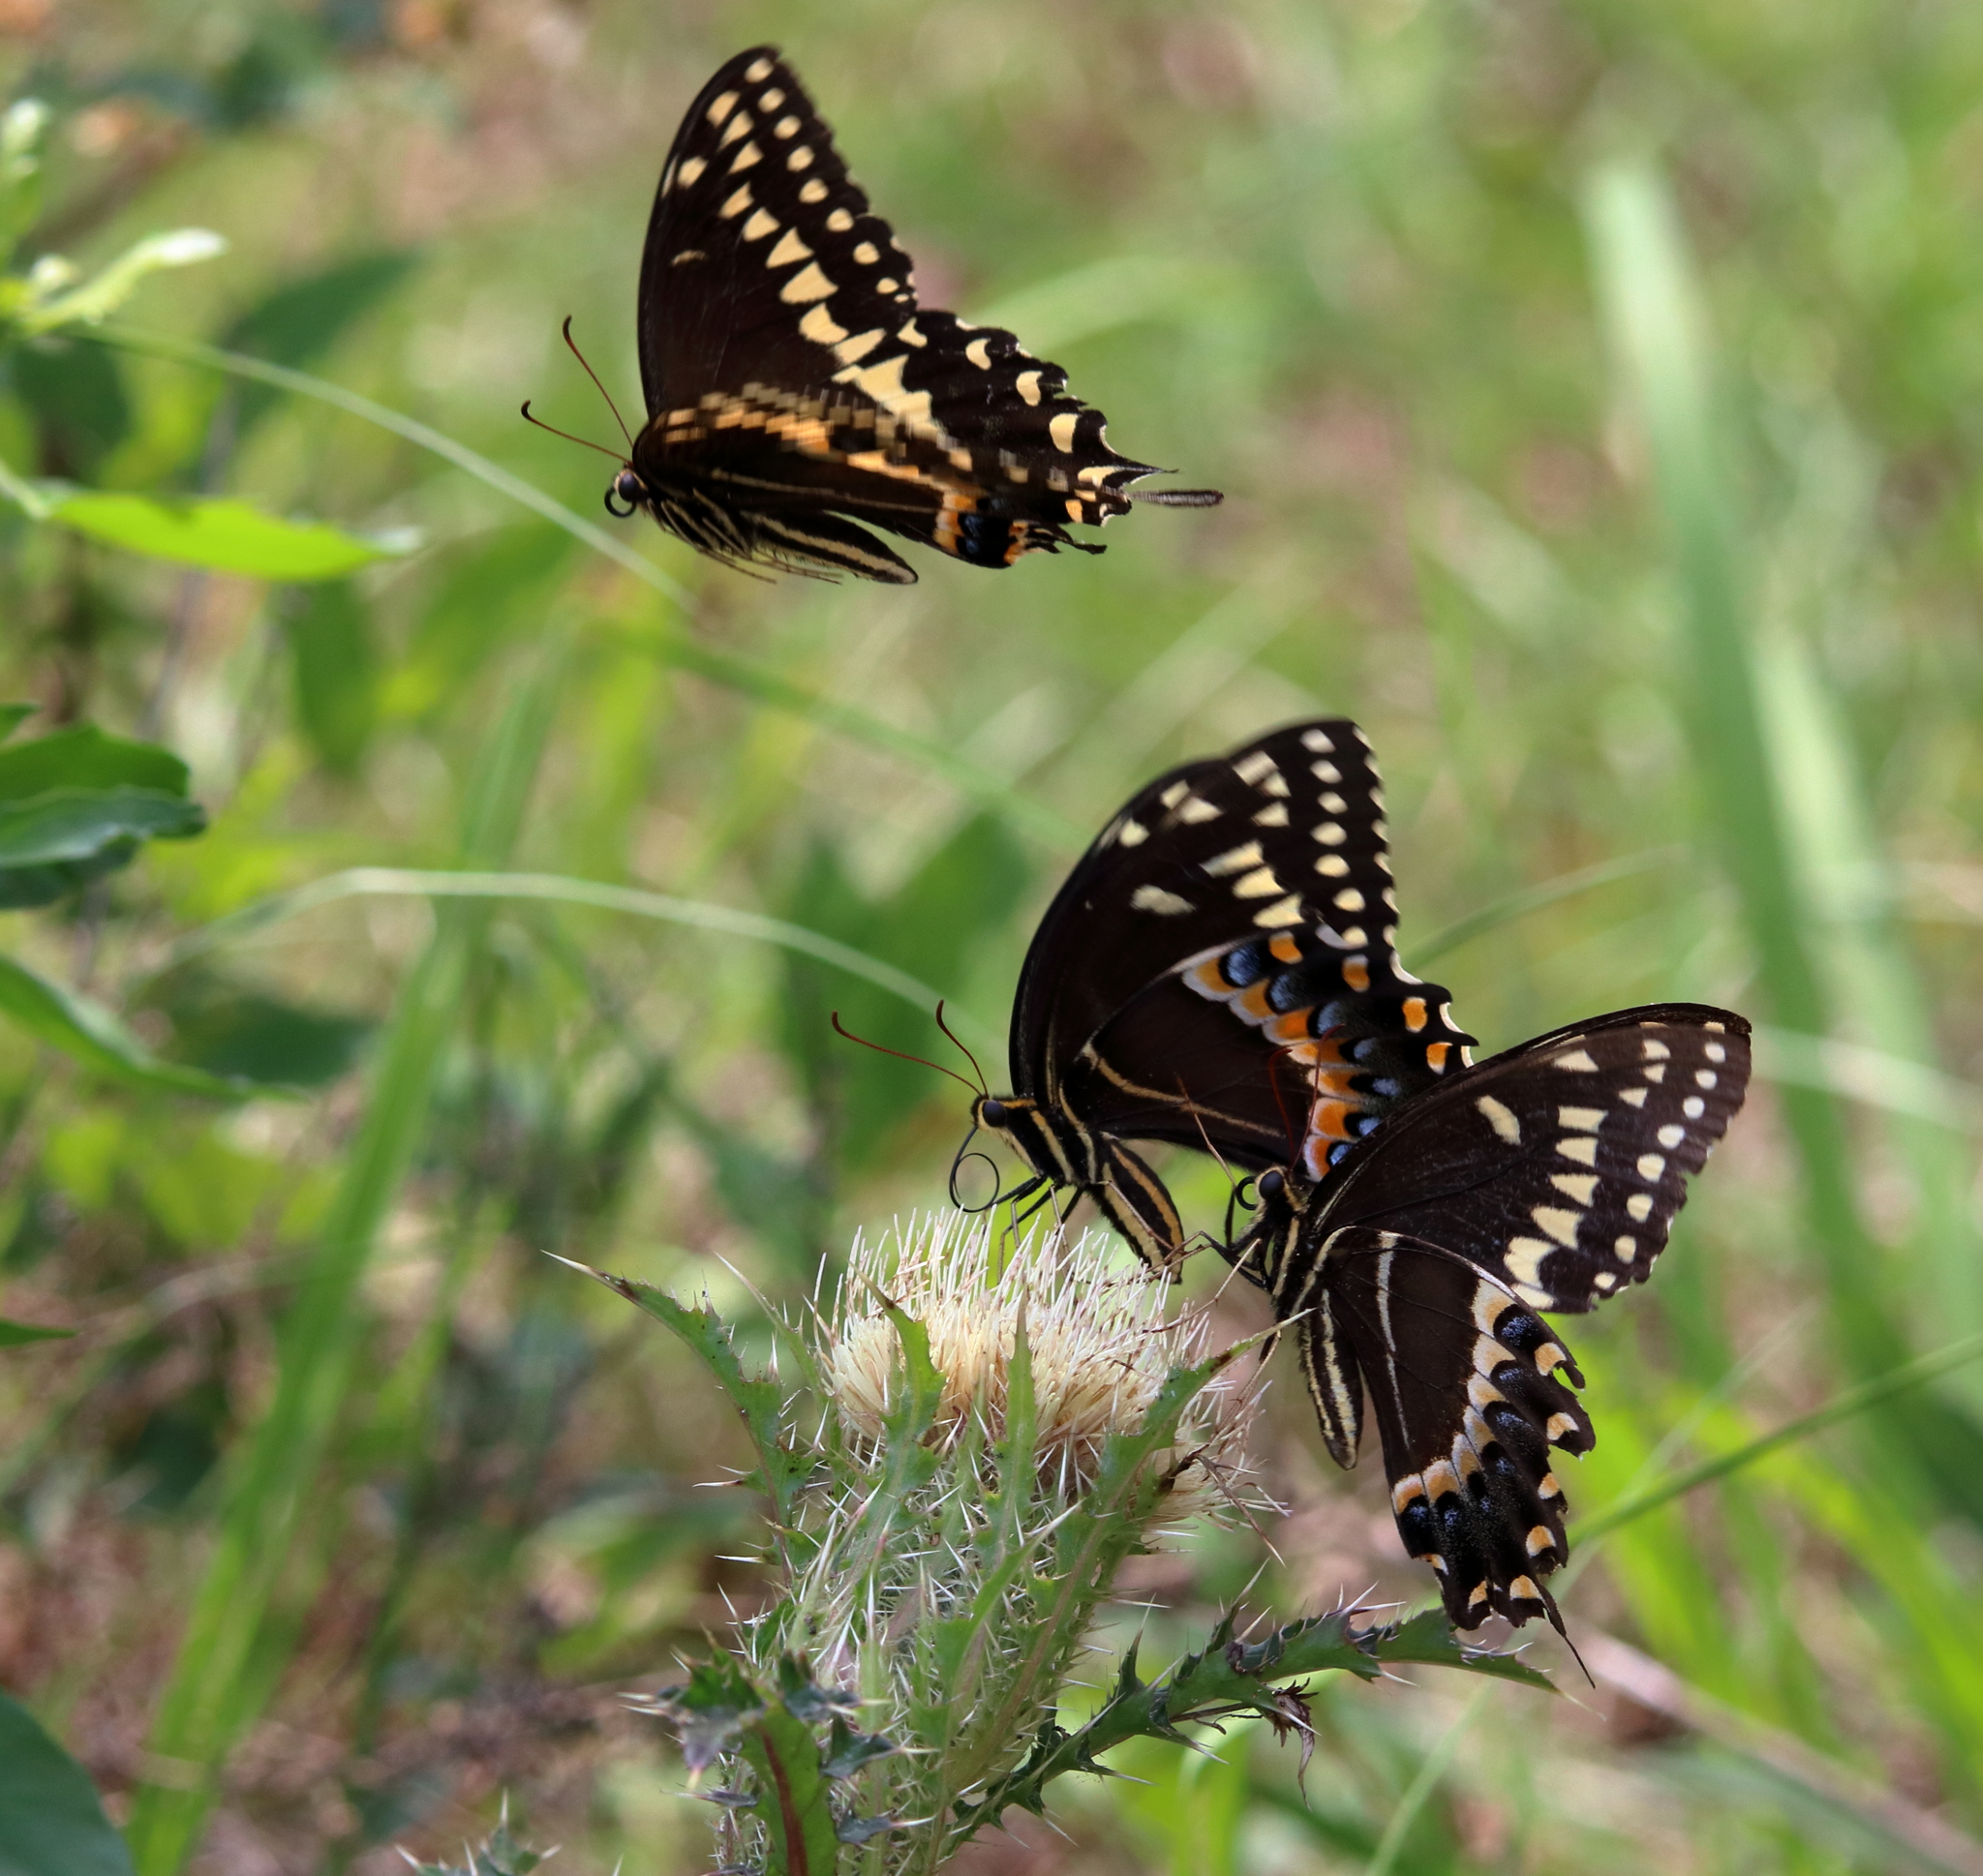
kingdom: Animalia
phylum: Arthropoda
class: Insecta
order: Lepidoptera
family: Papilionidae
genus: Papilio
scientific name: Papilio palamedes
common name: Palamedes swallowtail
